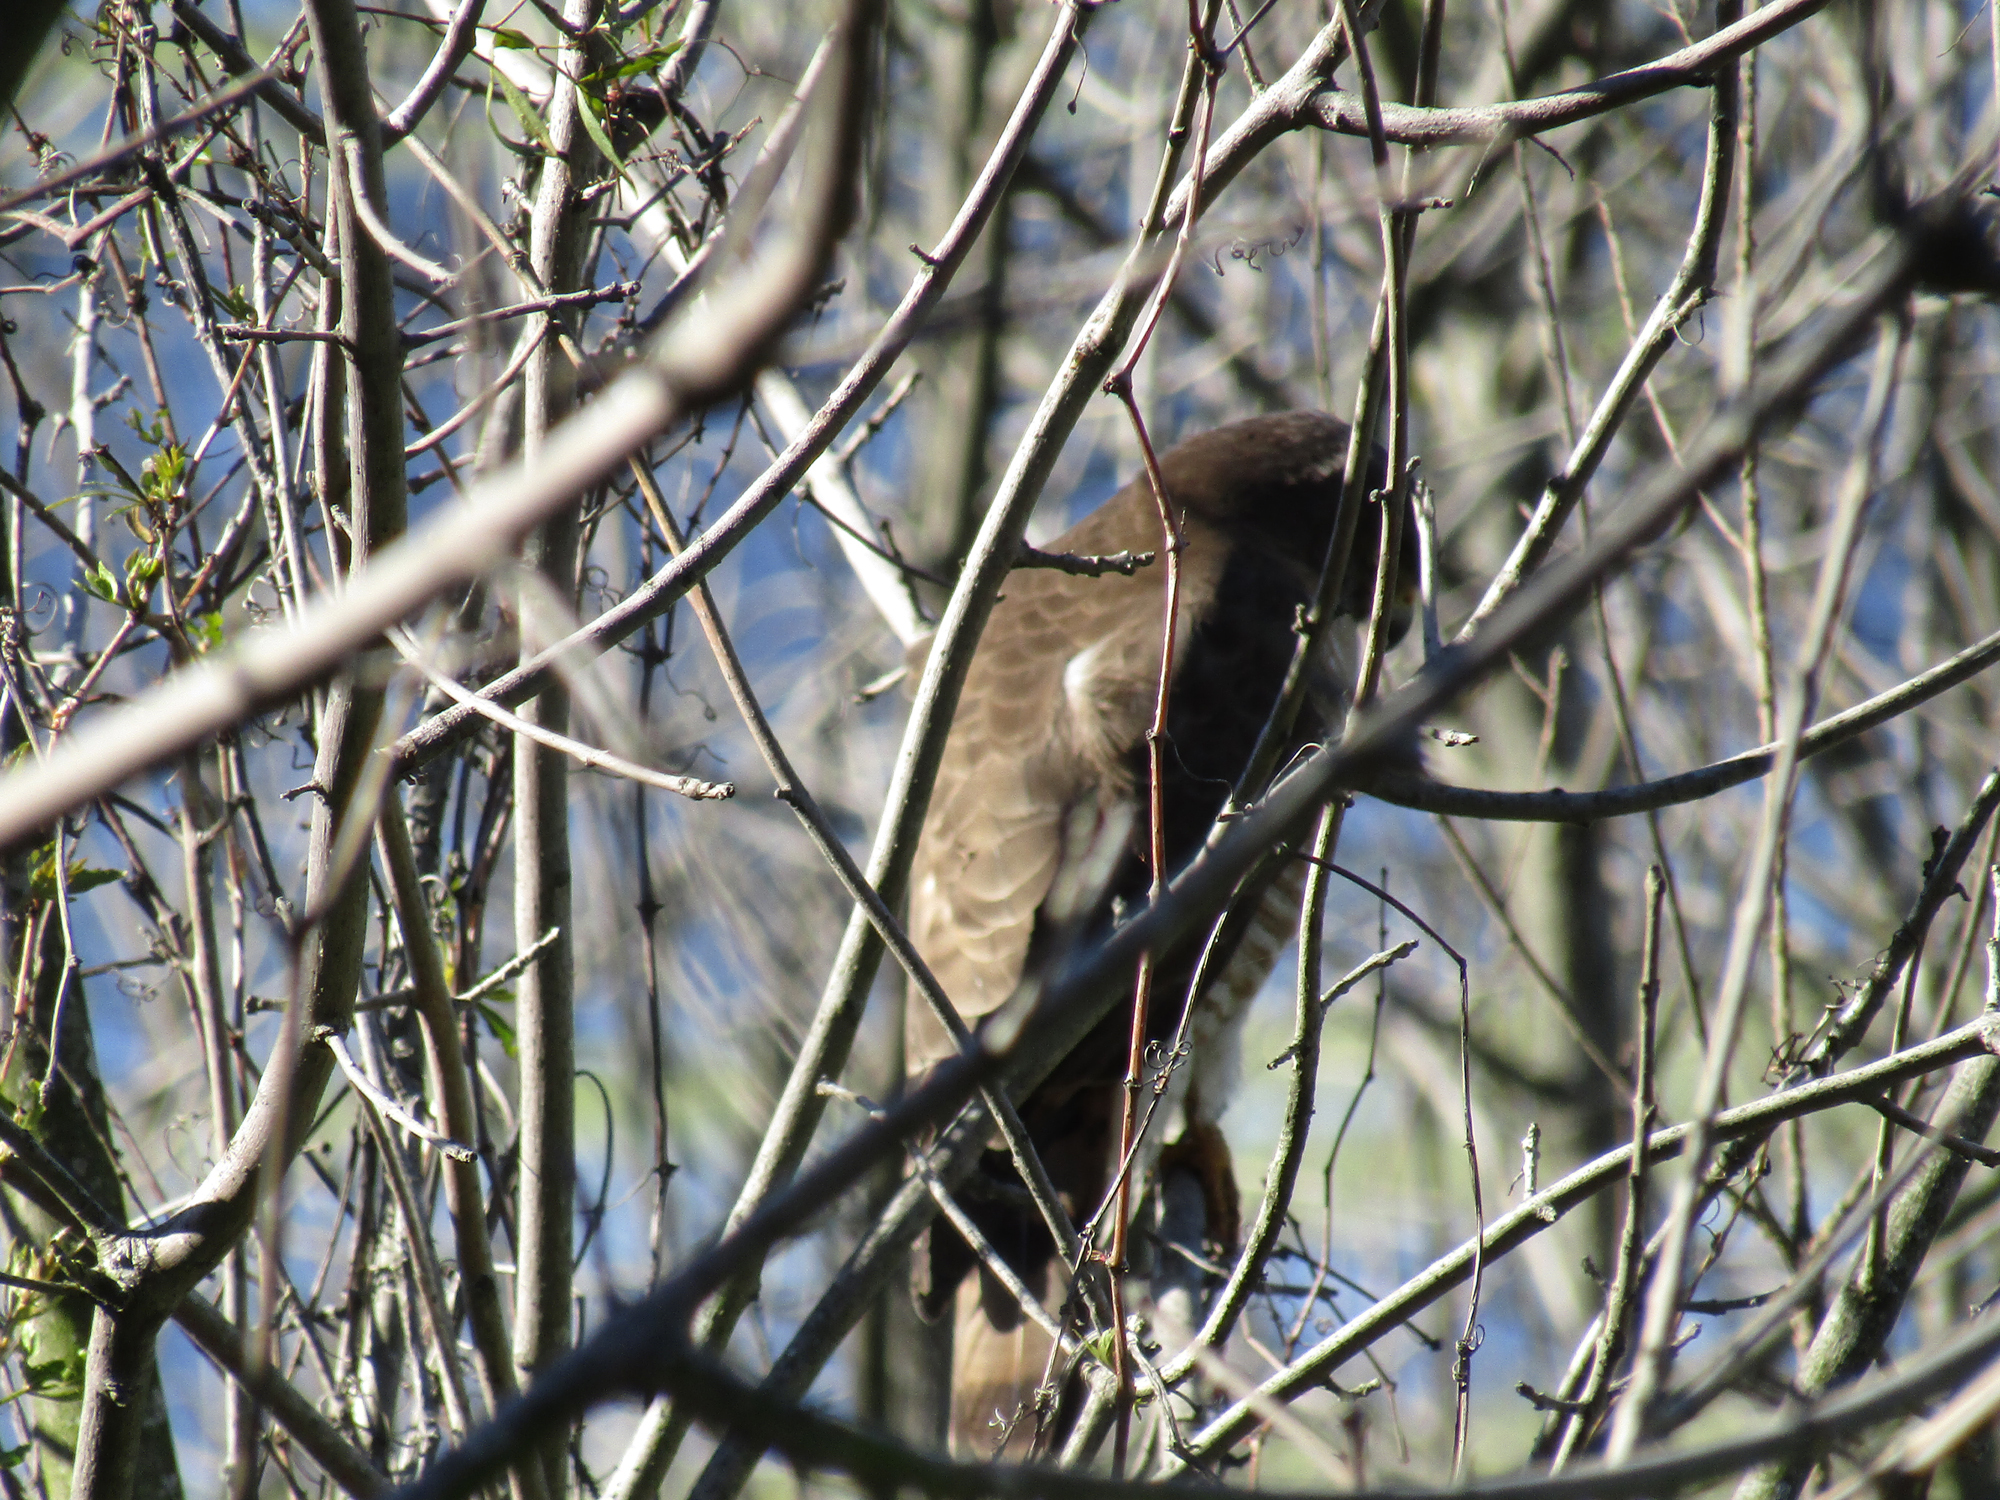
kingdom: Animalia
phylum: Chordata
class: Aves
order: Accipitriformes
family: Accipitridae
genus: Rupornis
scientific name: Rupornis magnirostris
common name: Roadside hawk
